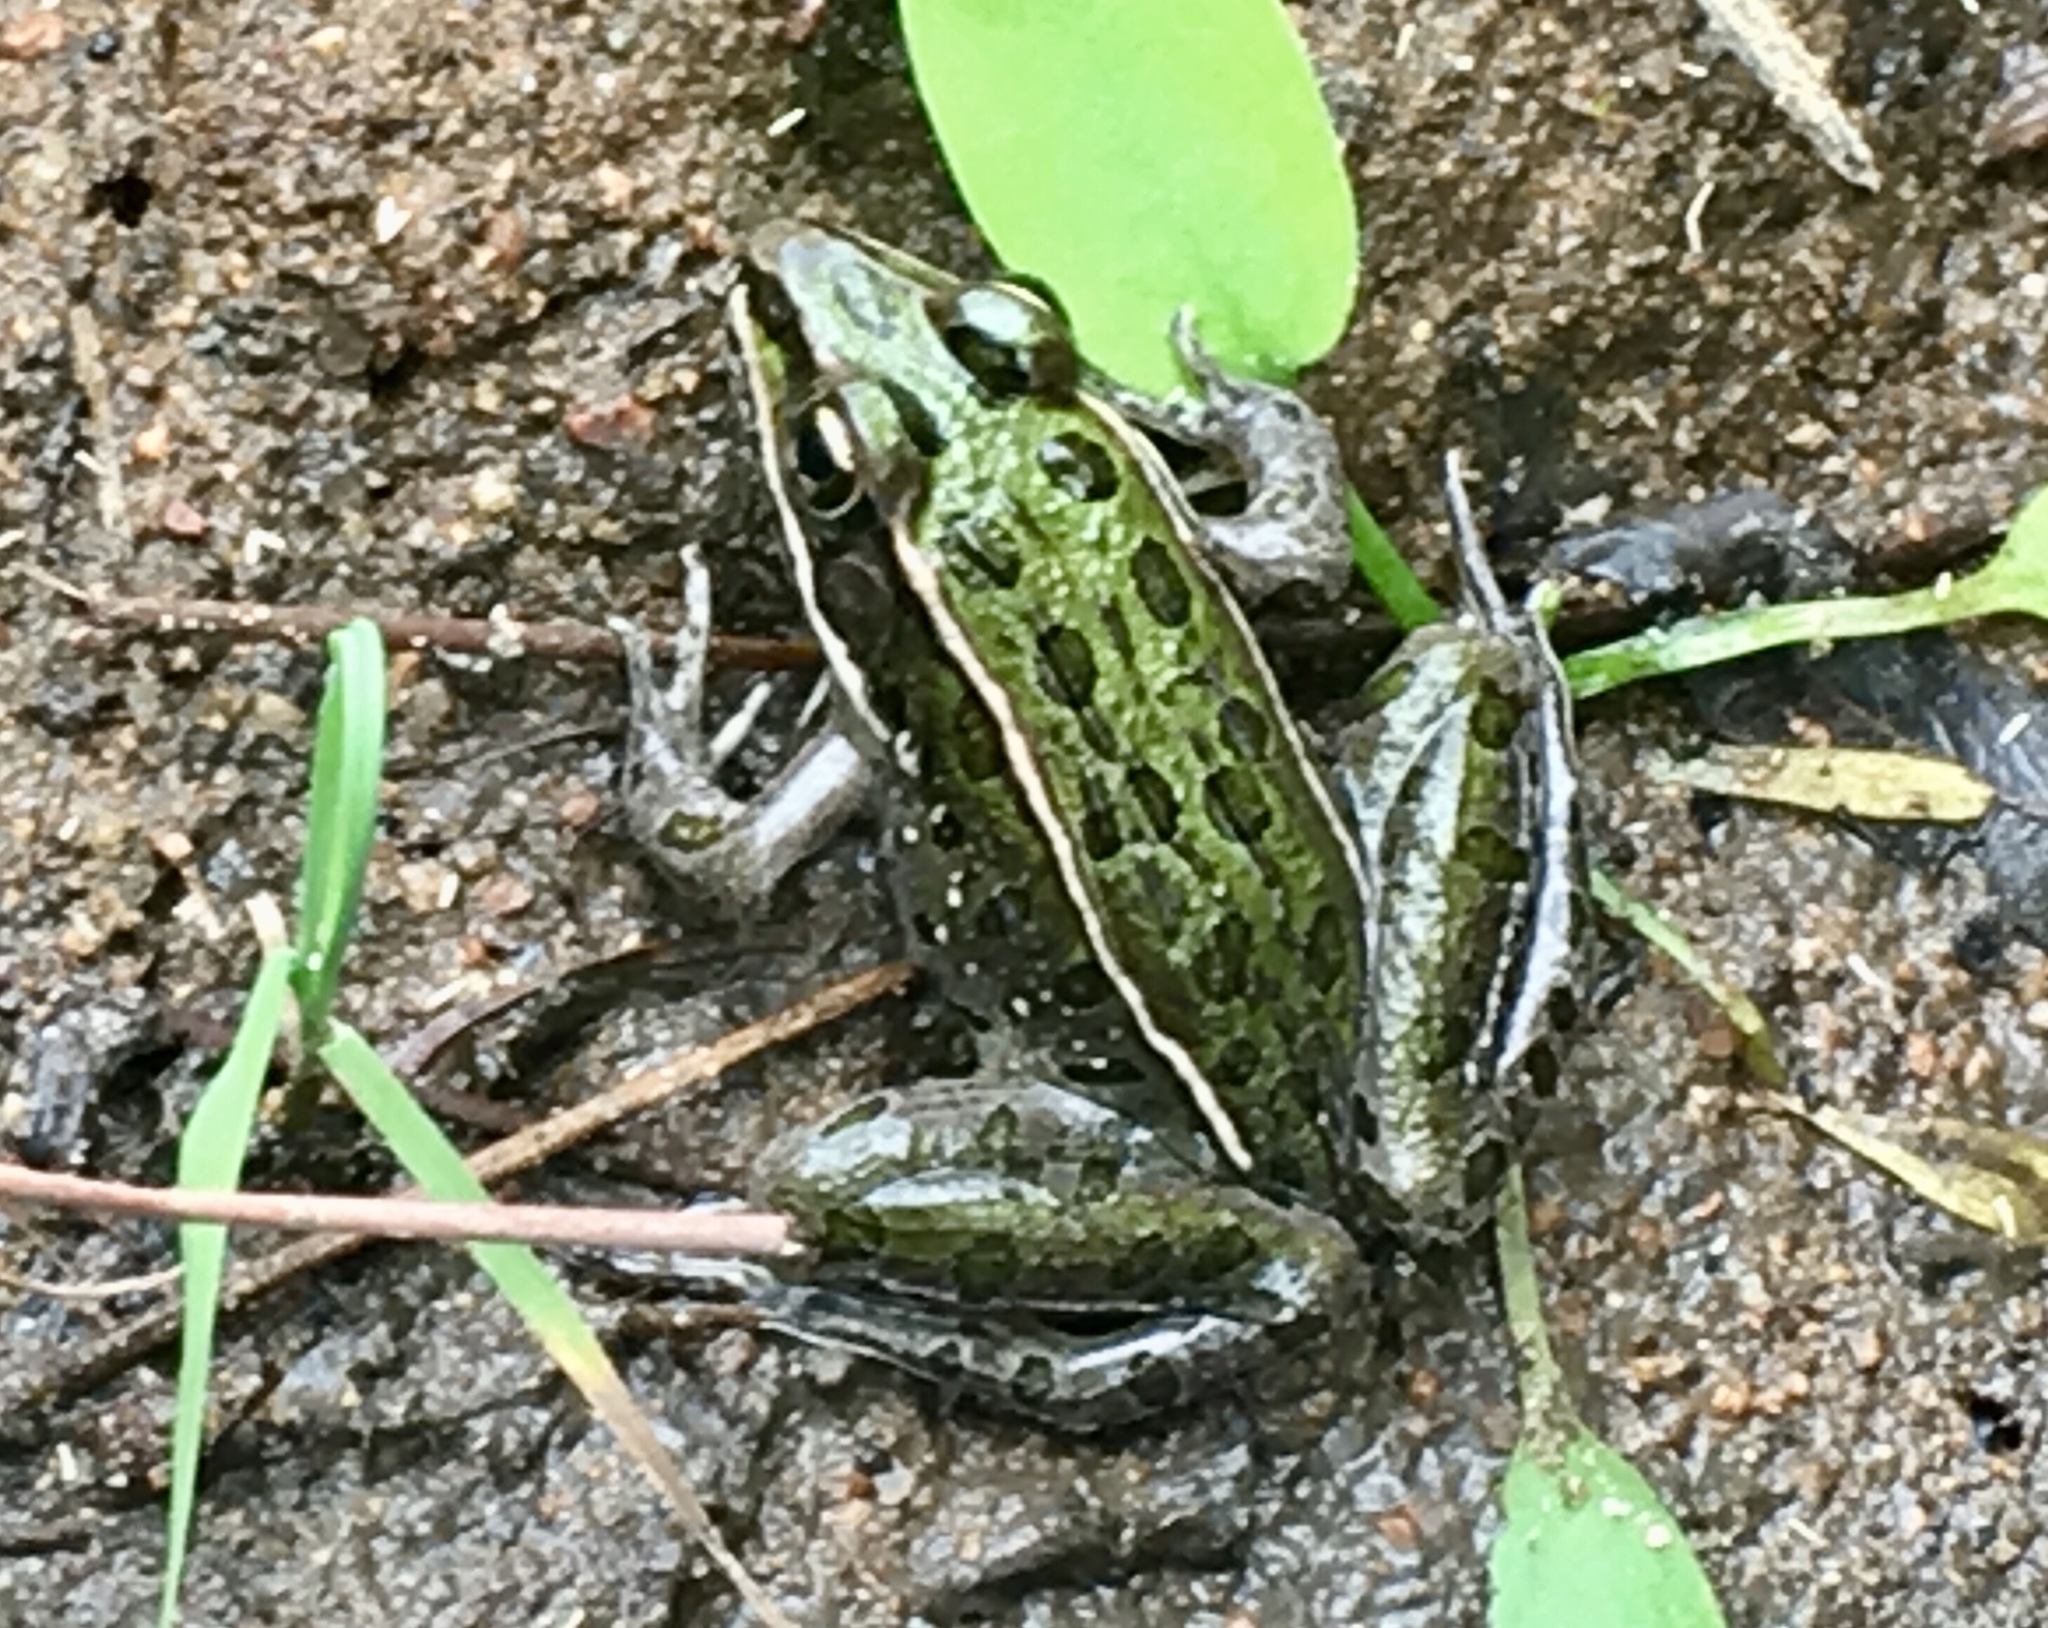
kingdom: Animalia
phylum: Chordata
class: Amphibia
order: Anura
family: Ranidae
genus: Lithobates
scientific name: Lithobates pipiens
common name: Northern leopard frog
